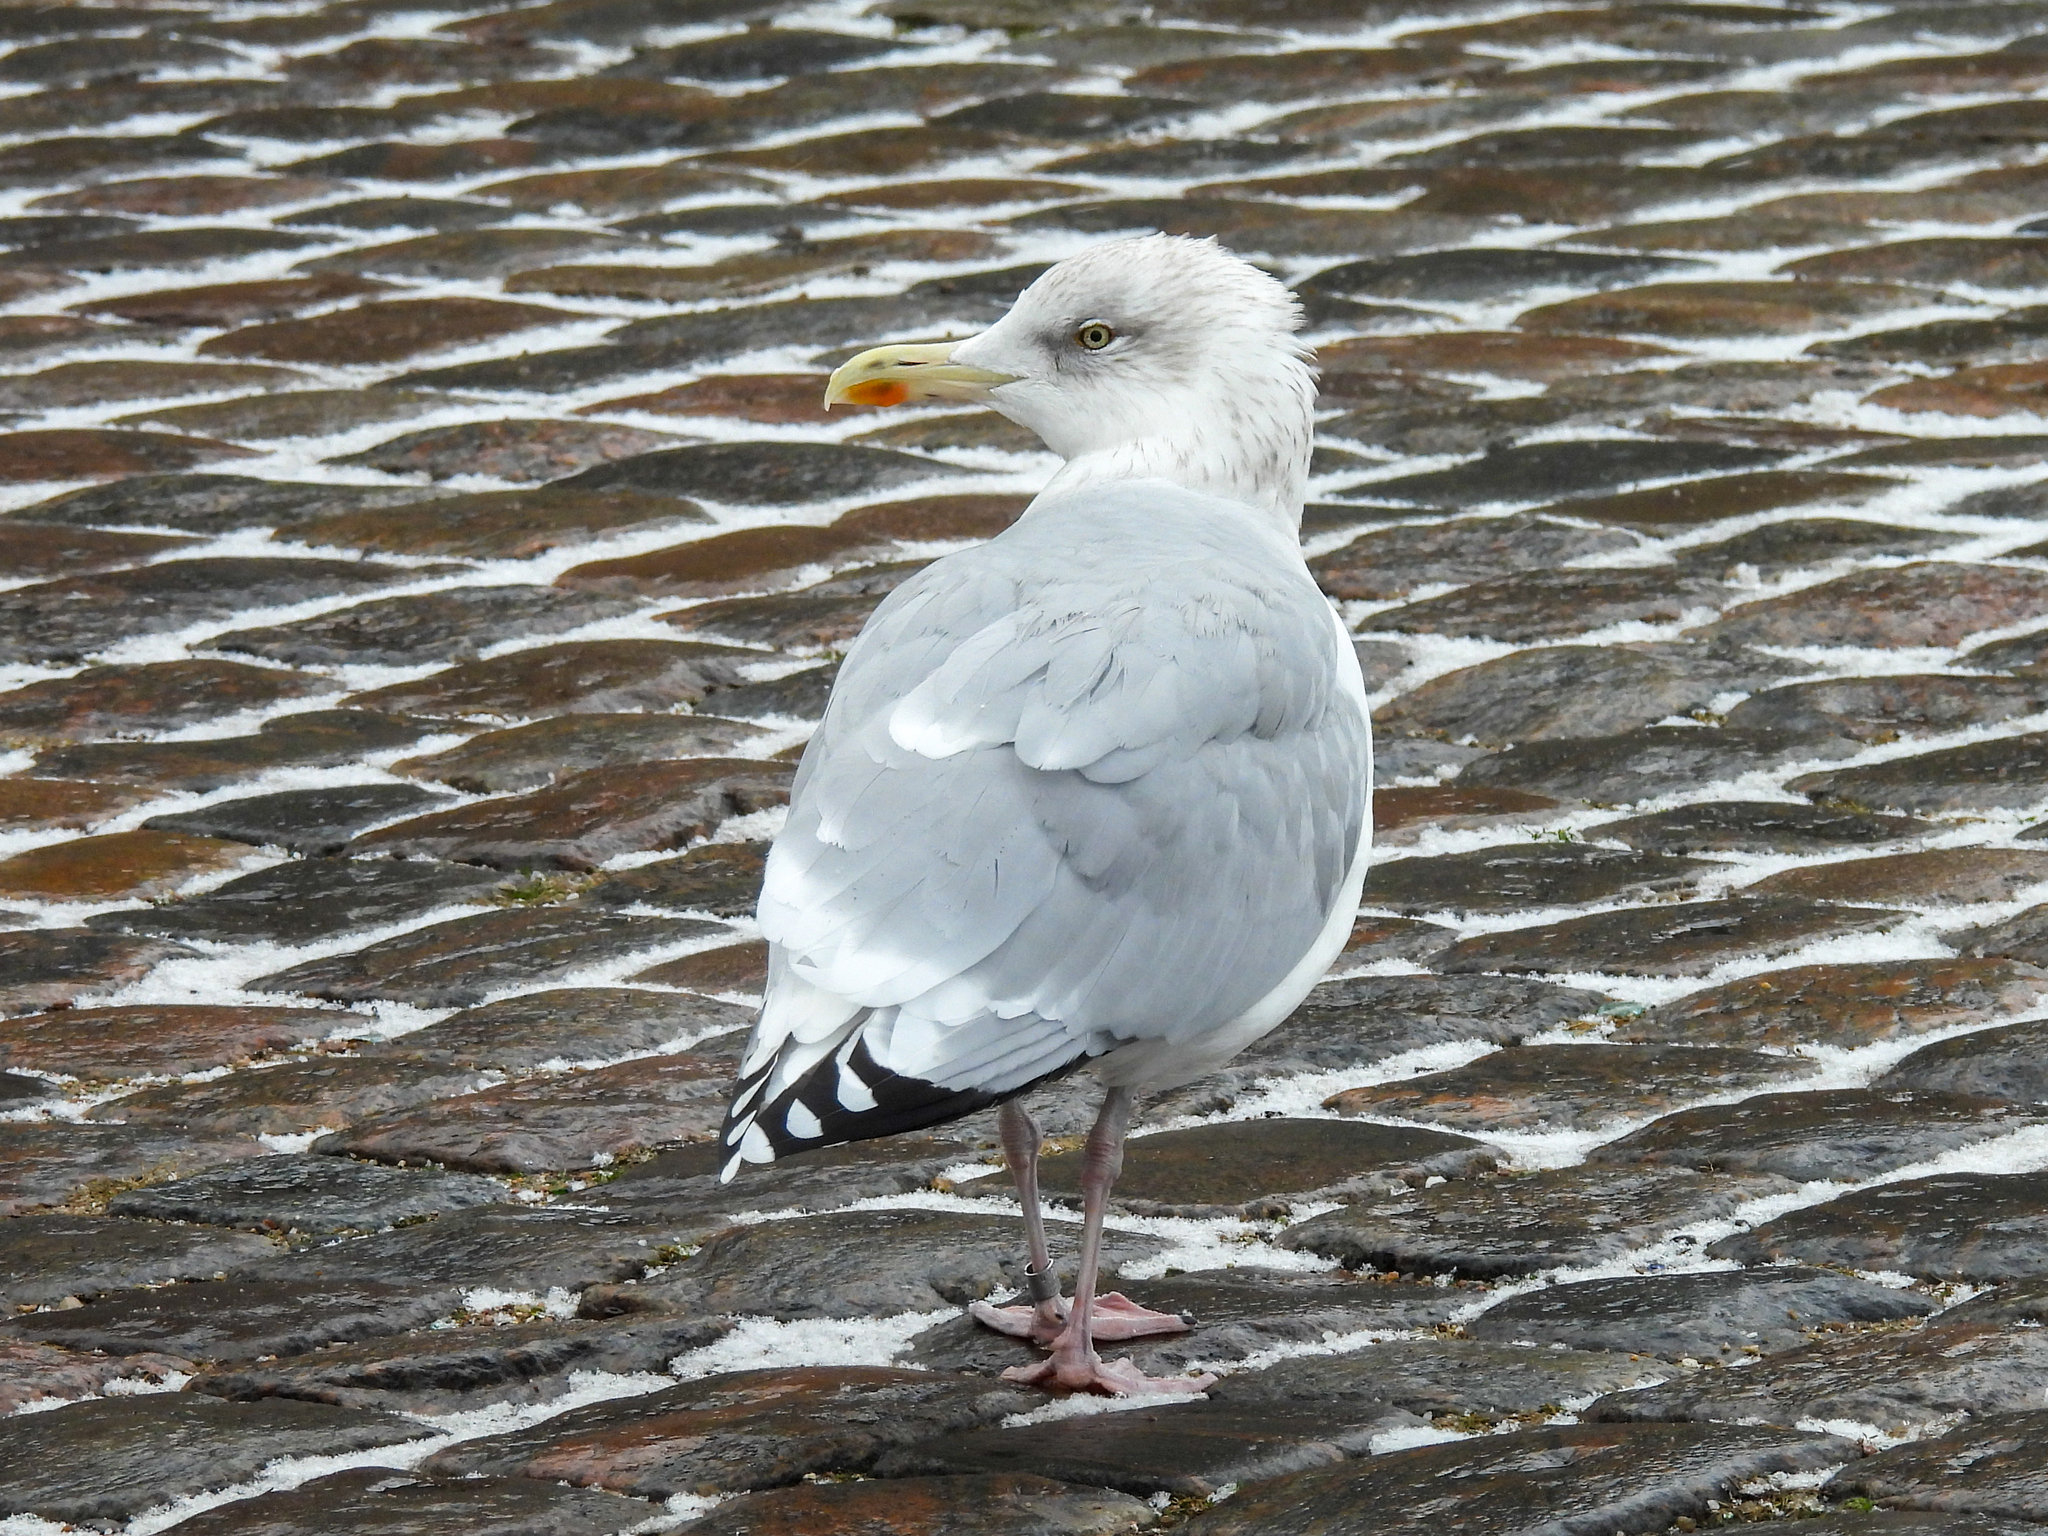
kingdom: Animalia
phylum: Chordata
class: Aves
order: Charadriiformes
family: Laridae
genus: Larus
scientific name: Larus argentatus
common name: Herring gull
